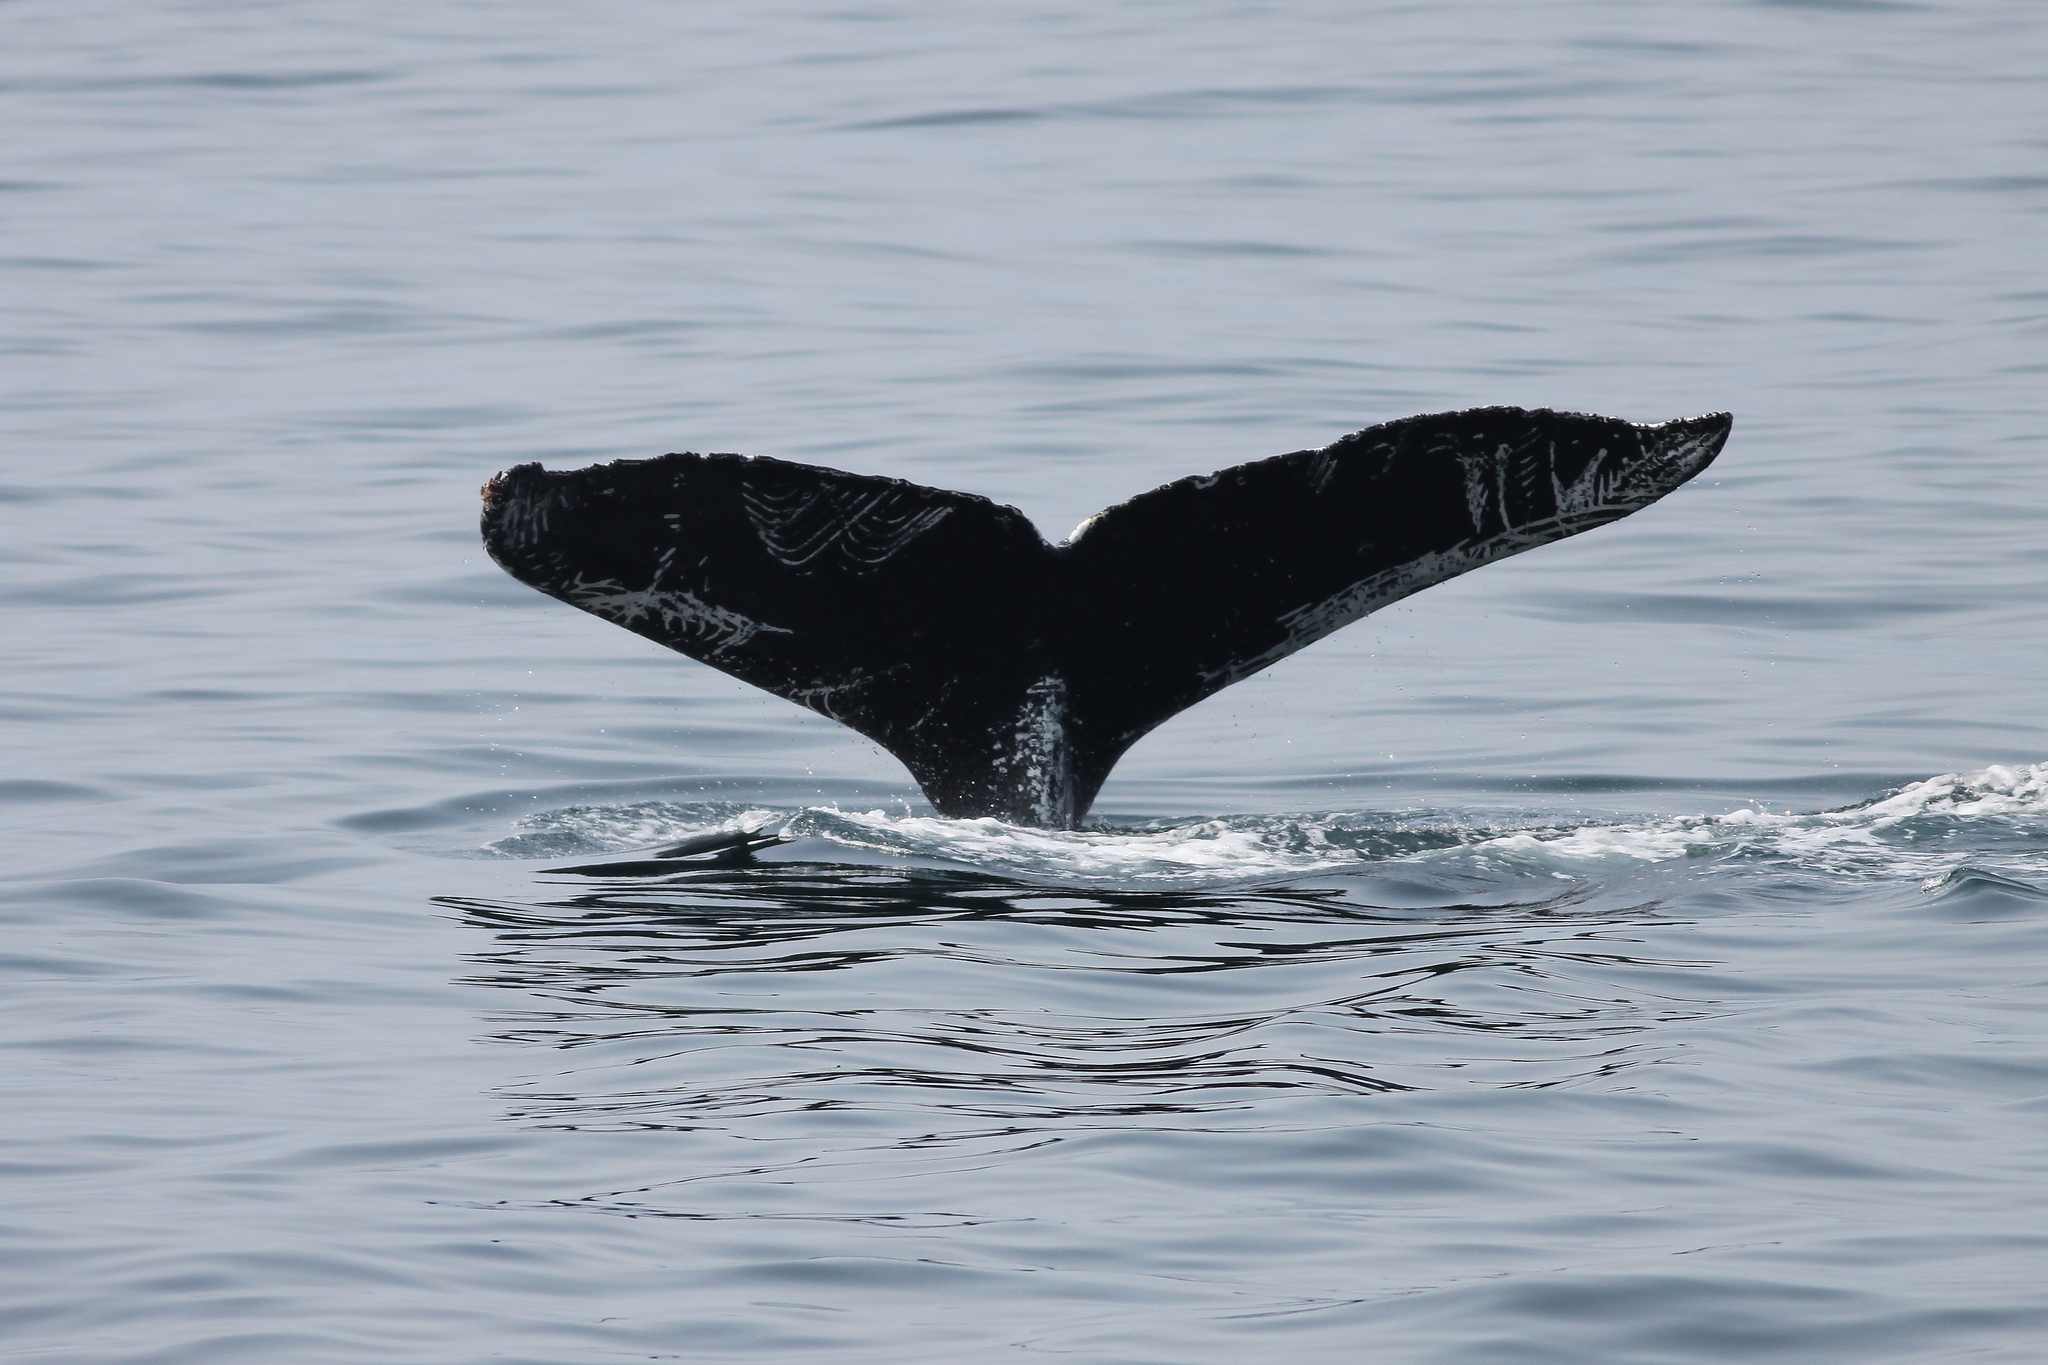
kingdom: Animalia
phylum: Chordata
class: Mammalia
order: Cetacea
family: Balaenopteridae
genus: Megaptera
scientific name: Megaptera novaeangliae
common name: Humpback whale
